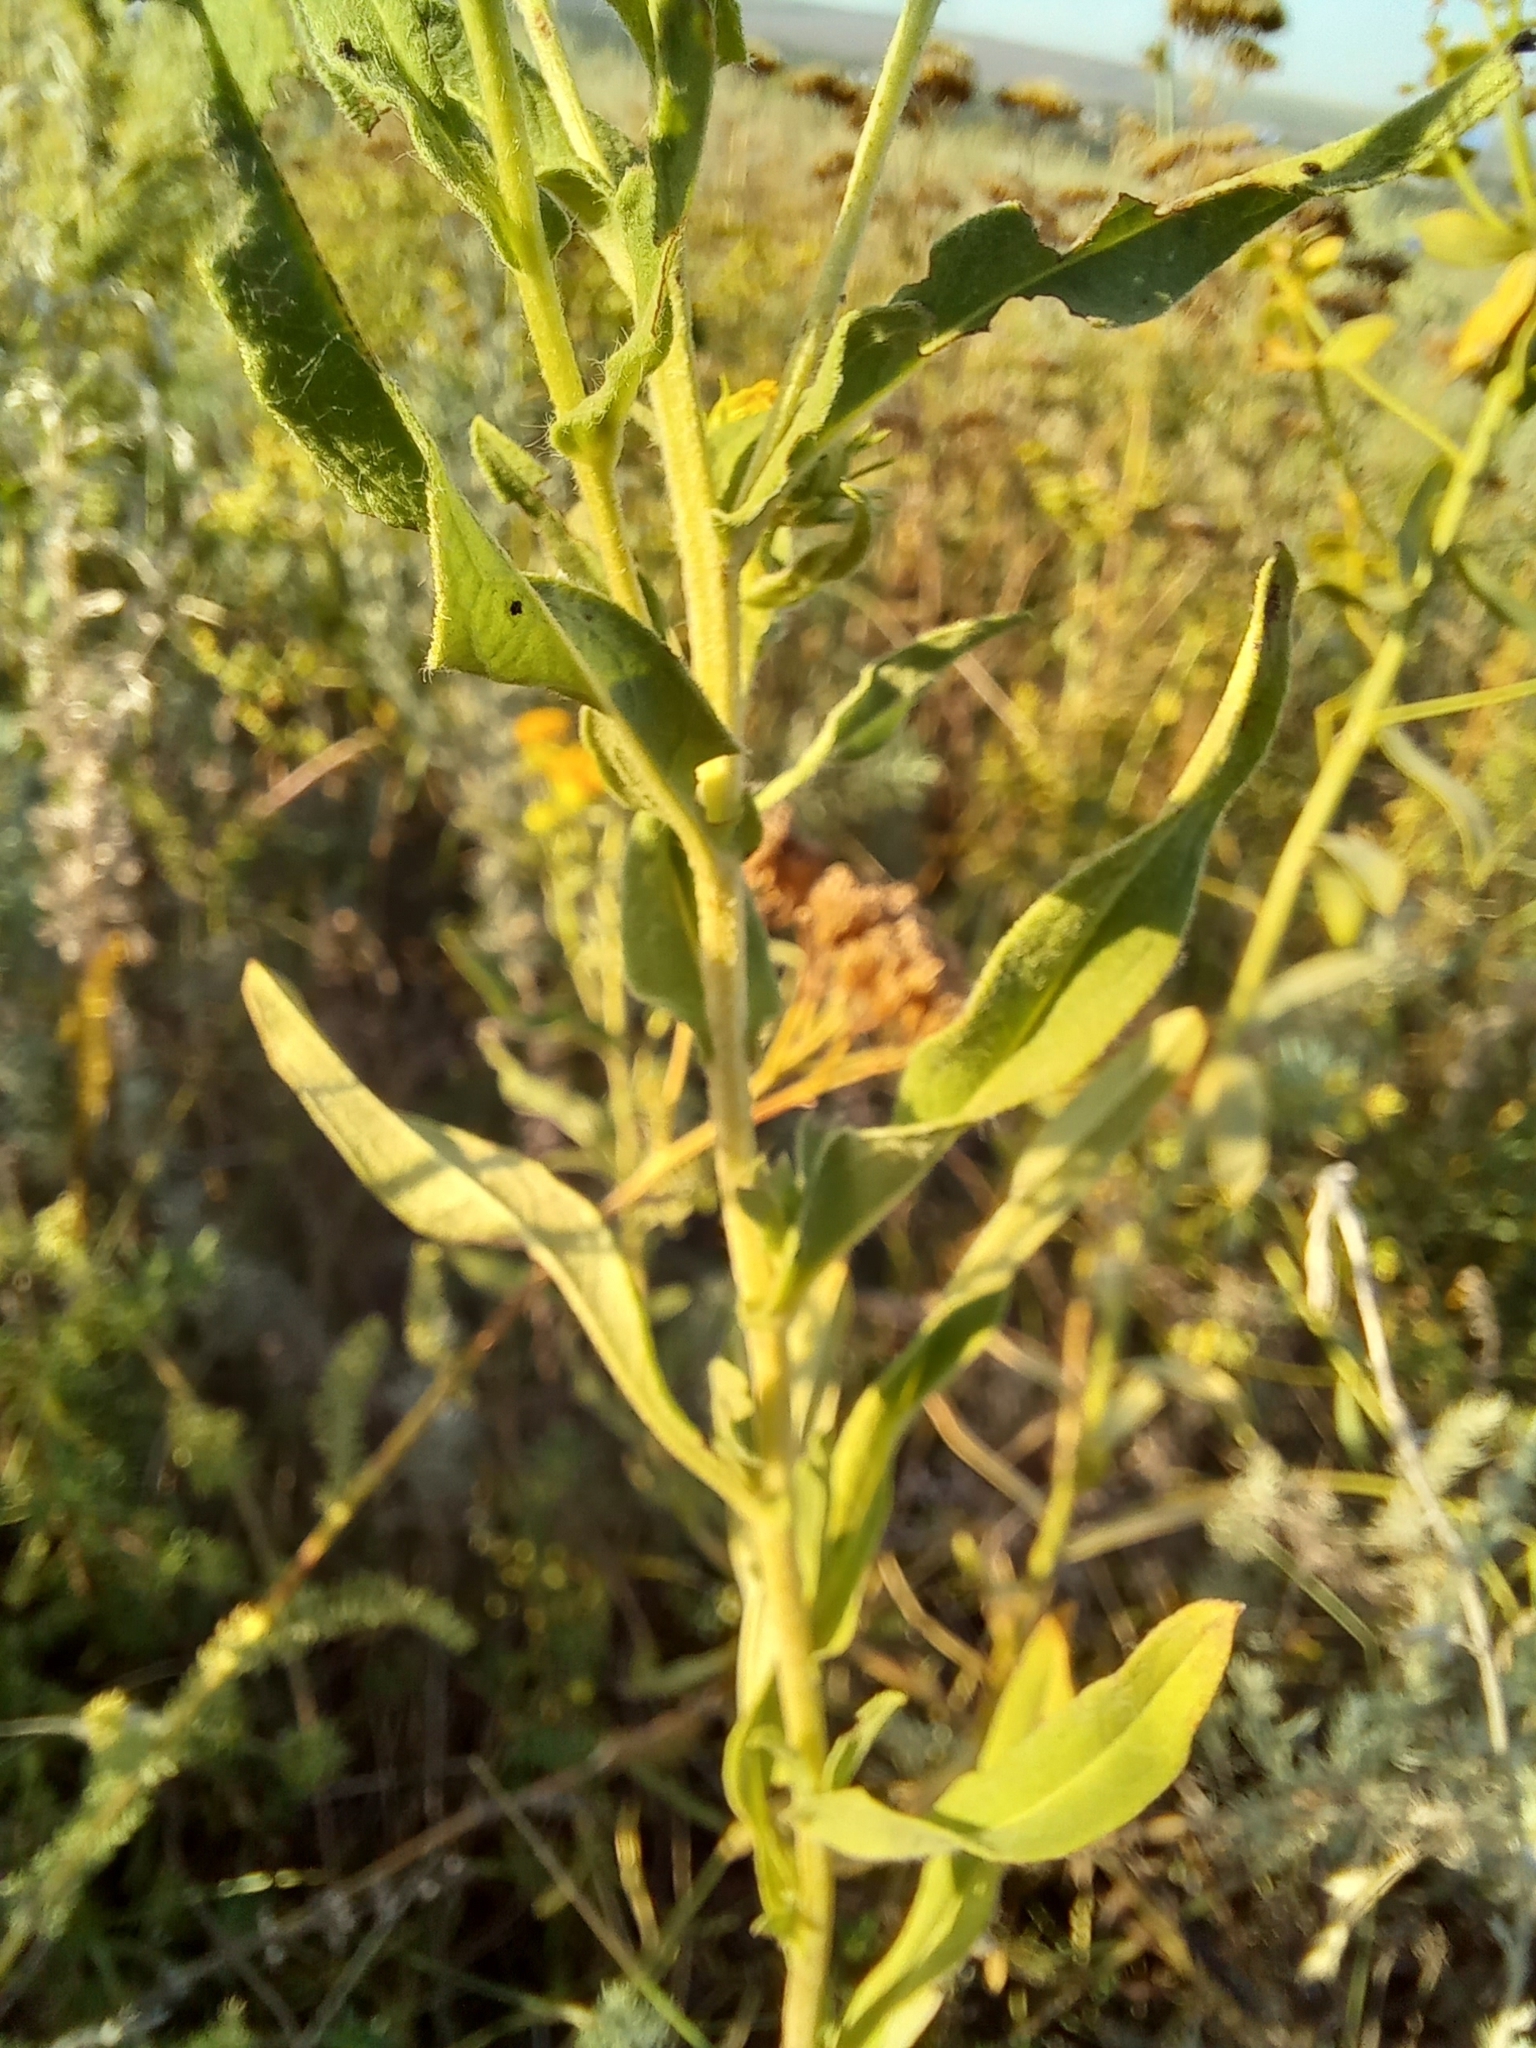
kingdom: Plantae
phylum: Tracheophyta
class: Magnoliopsida
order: Asterales
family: Asteraceae
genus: Pentanema
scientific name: Pentanema britannicum
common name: British elecampane
